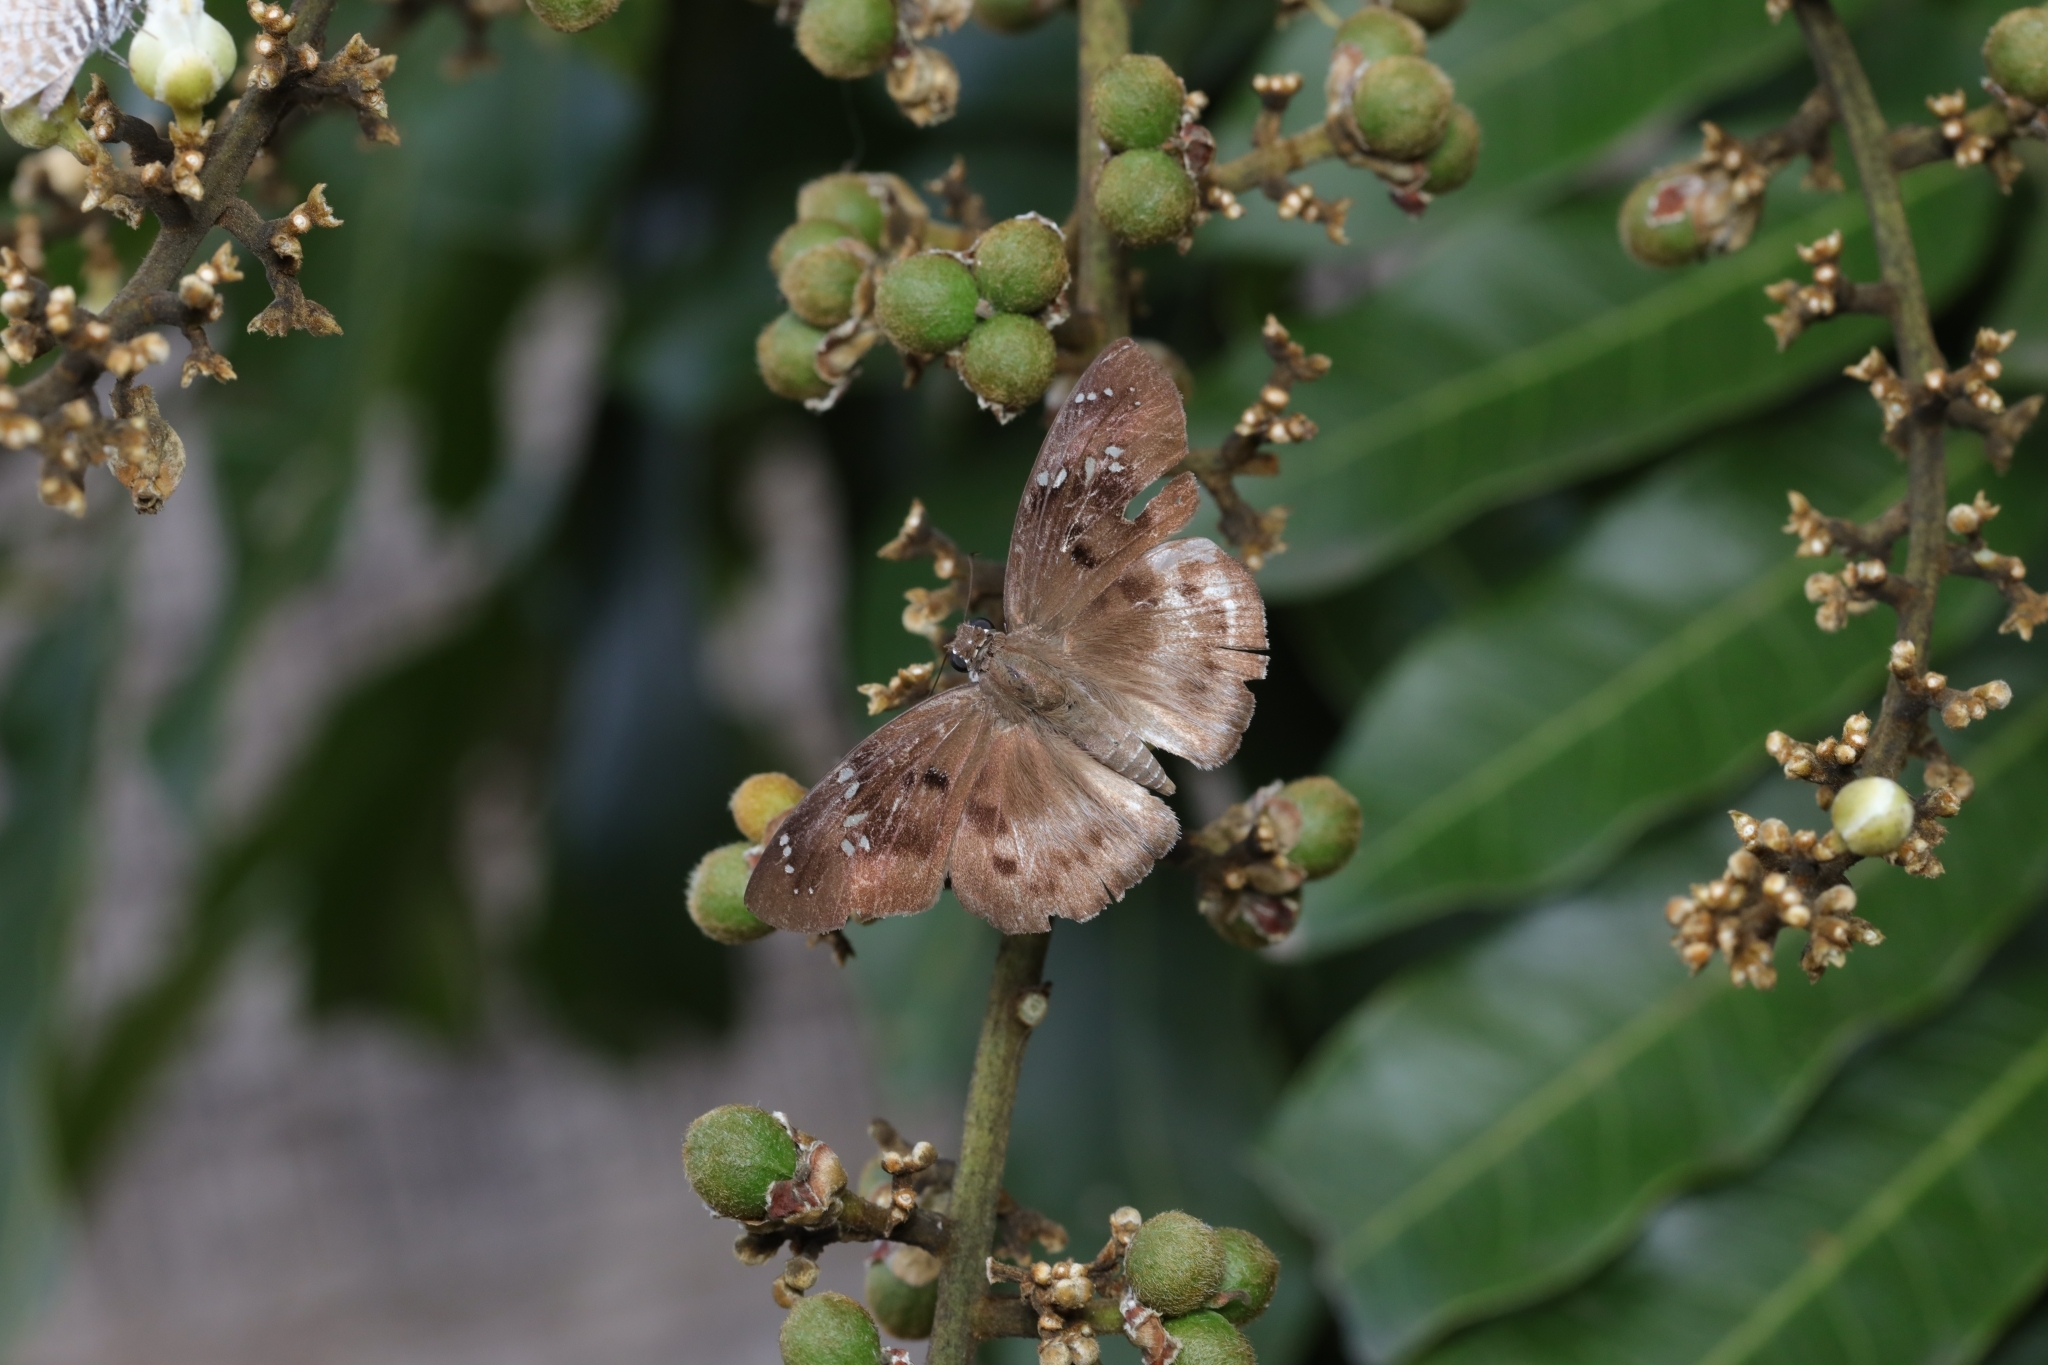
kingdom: Animalia
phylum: Arthropoda
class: Insecta
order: Lepidoptera
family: Hesperiidae
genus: Tagiades
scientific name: Tagiades flesus
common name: Clouded flat
